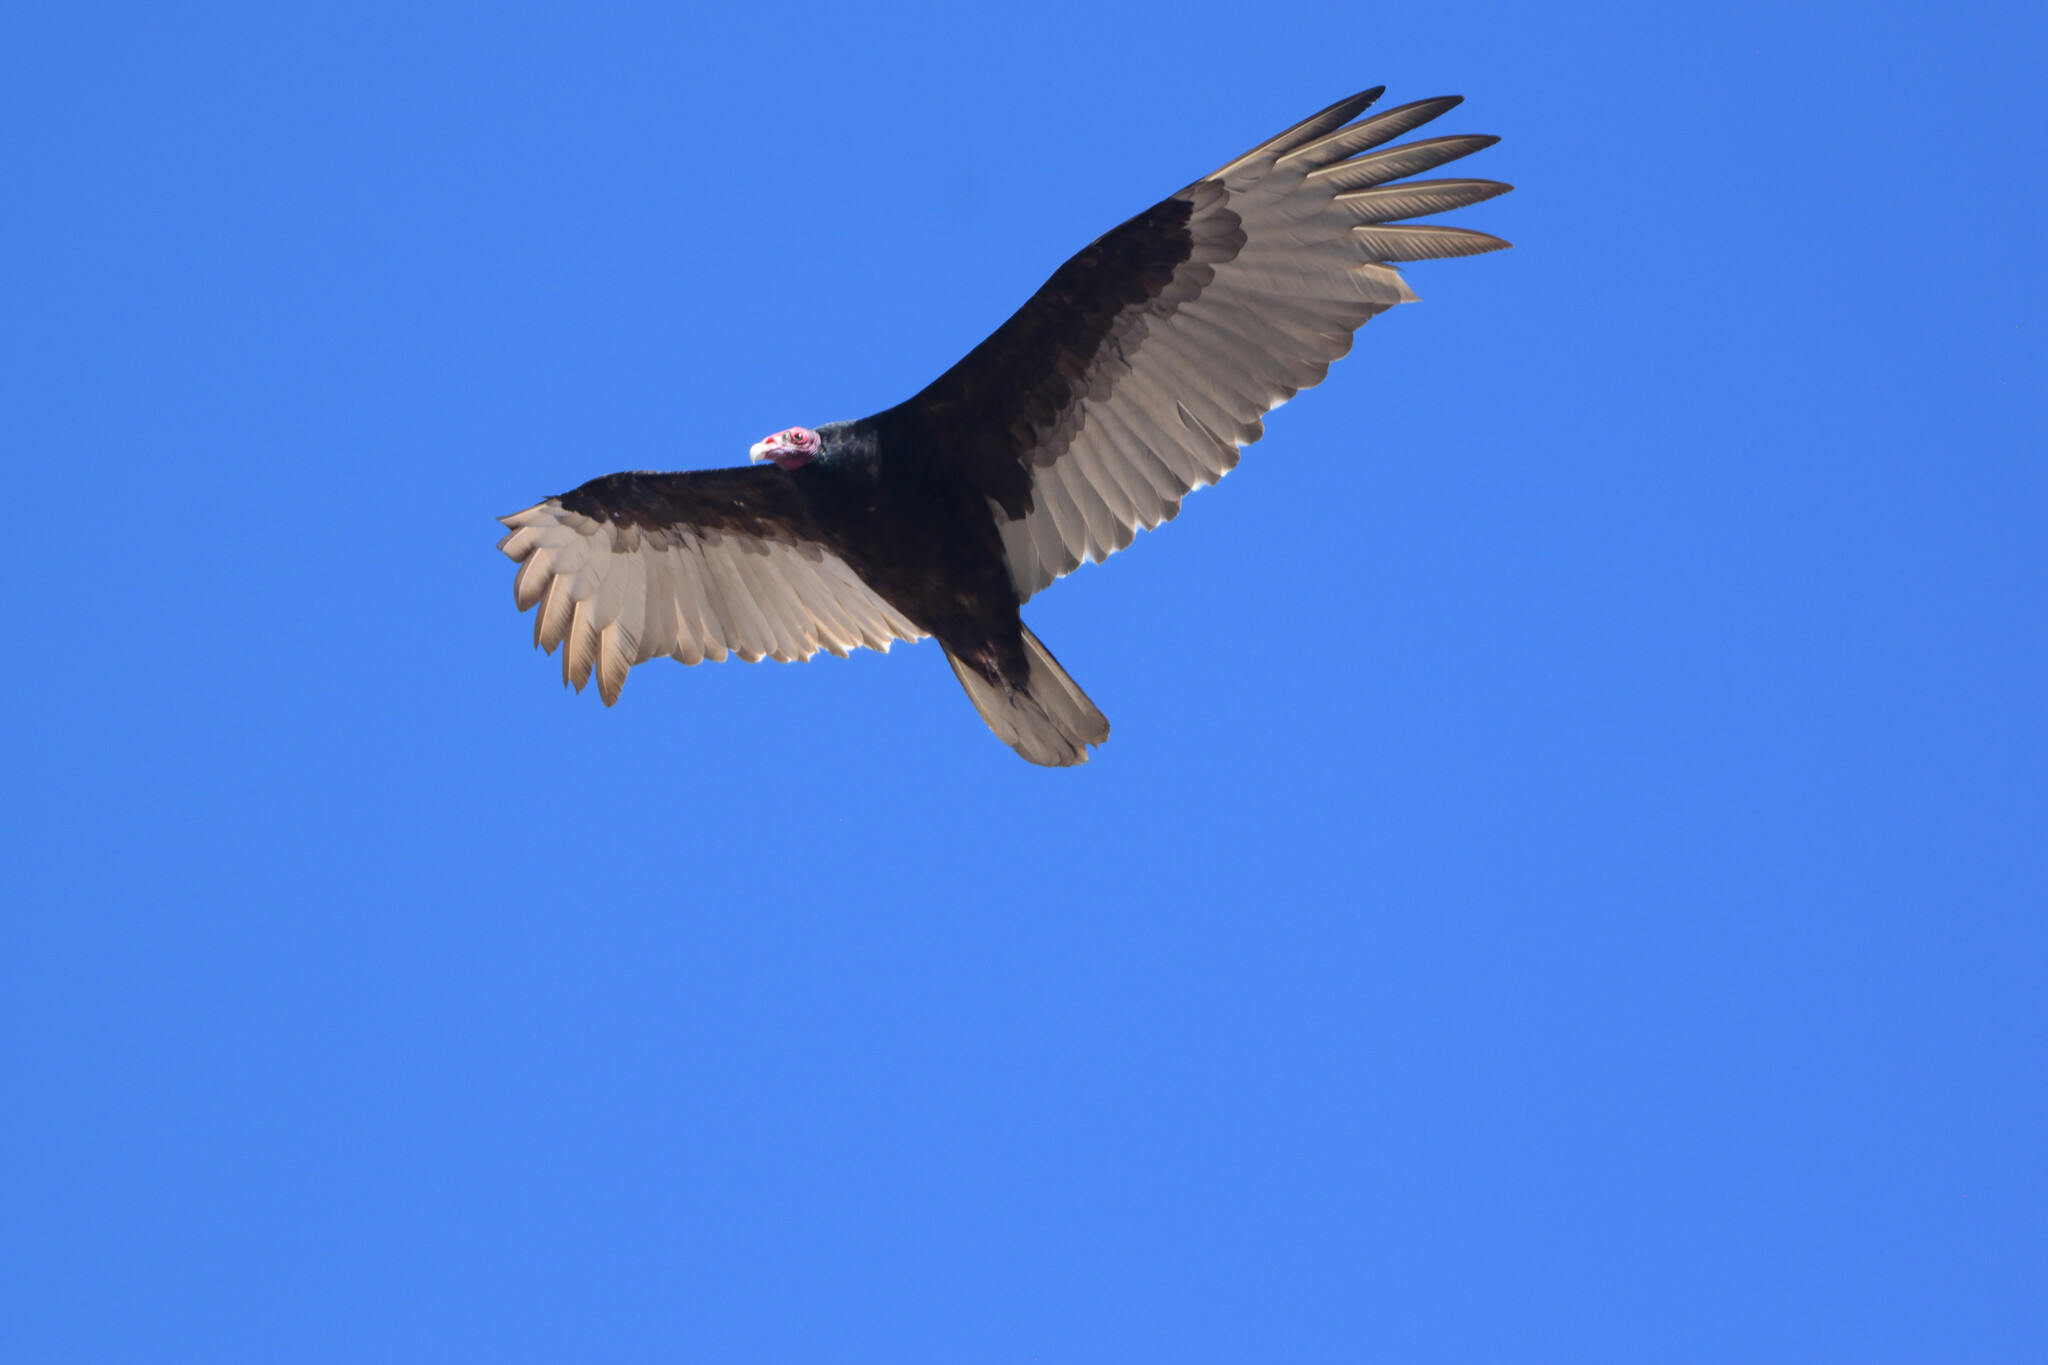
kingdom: Animalia
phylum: Chordata
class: Aves
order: Accipitriformes
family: Cathartidae
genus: Cathartes
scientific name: Cathartes aura
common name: Turkey vulture
